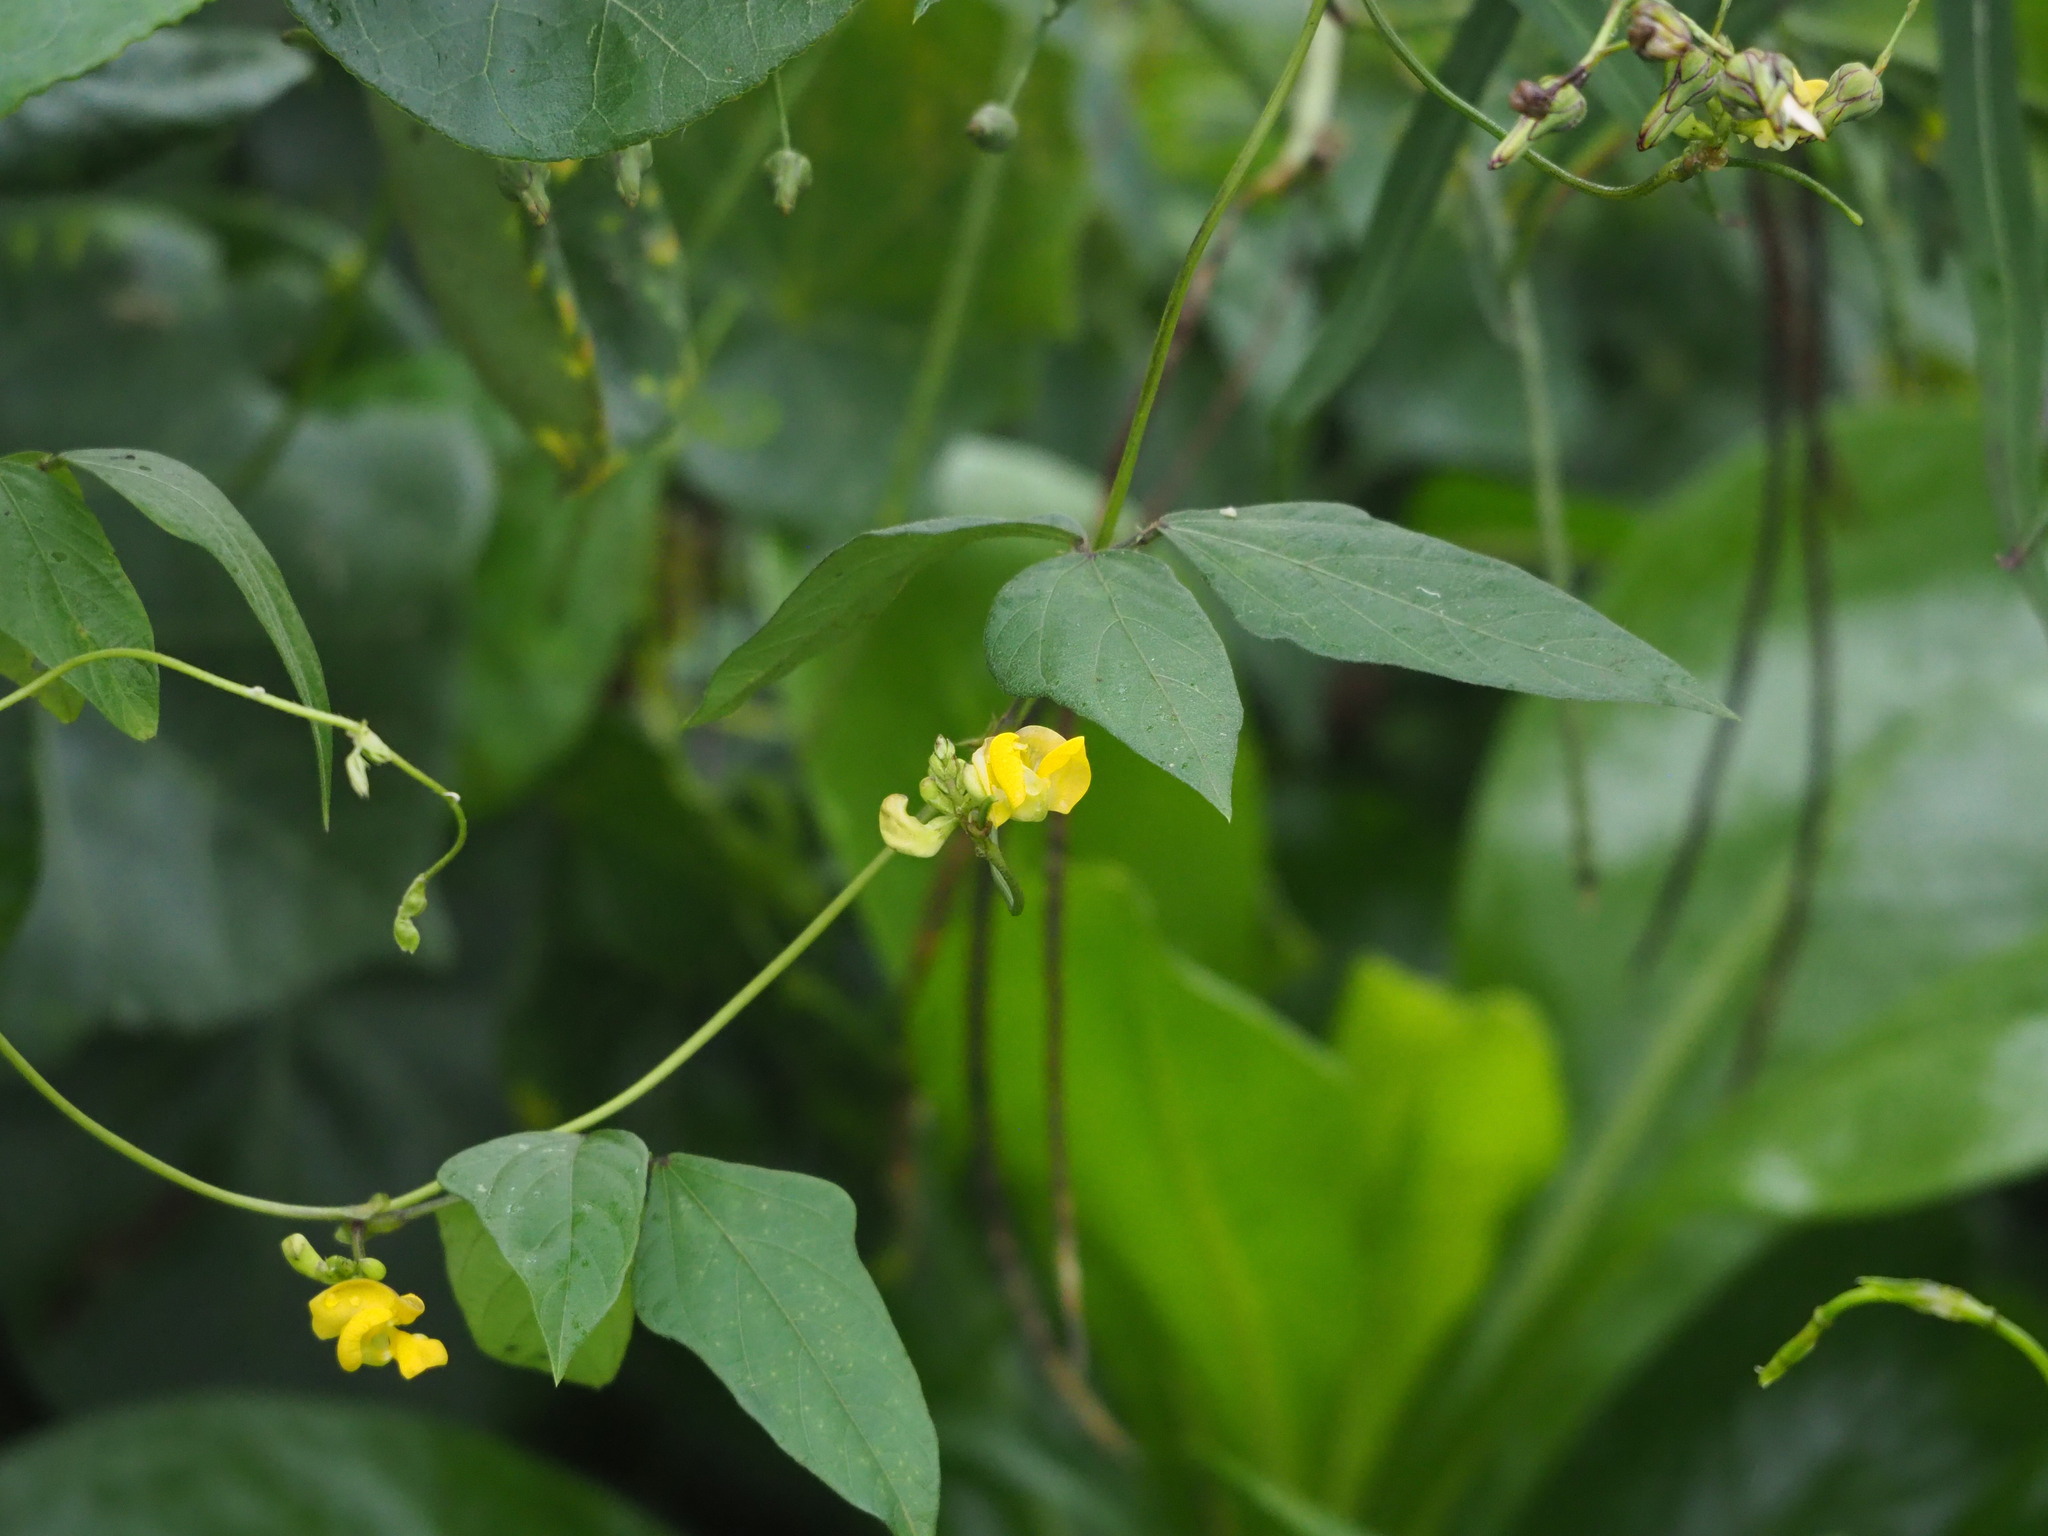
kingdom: Plantae
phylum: Tracheophyta
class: Magnoliopsida
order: Fabales
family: Fabaceae
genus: Vigna
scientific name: Vigna reflexopilosa
